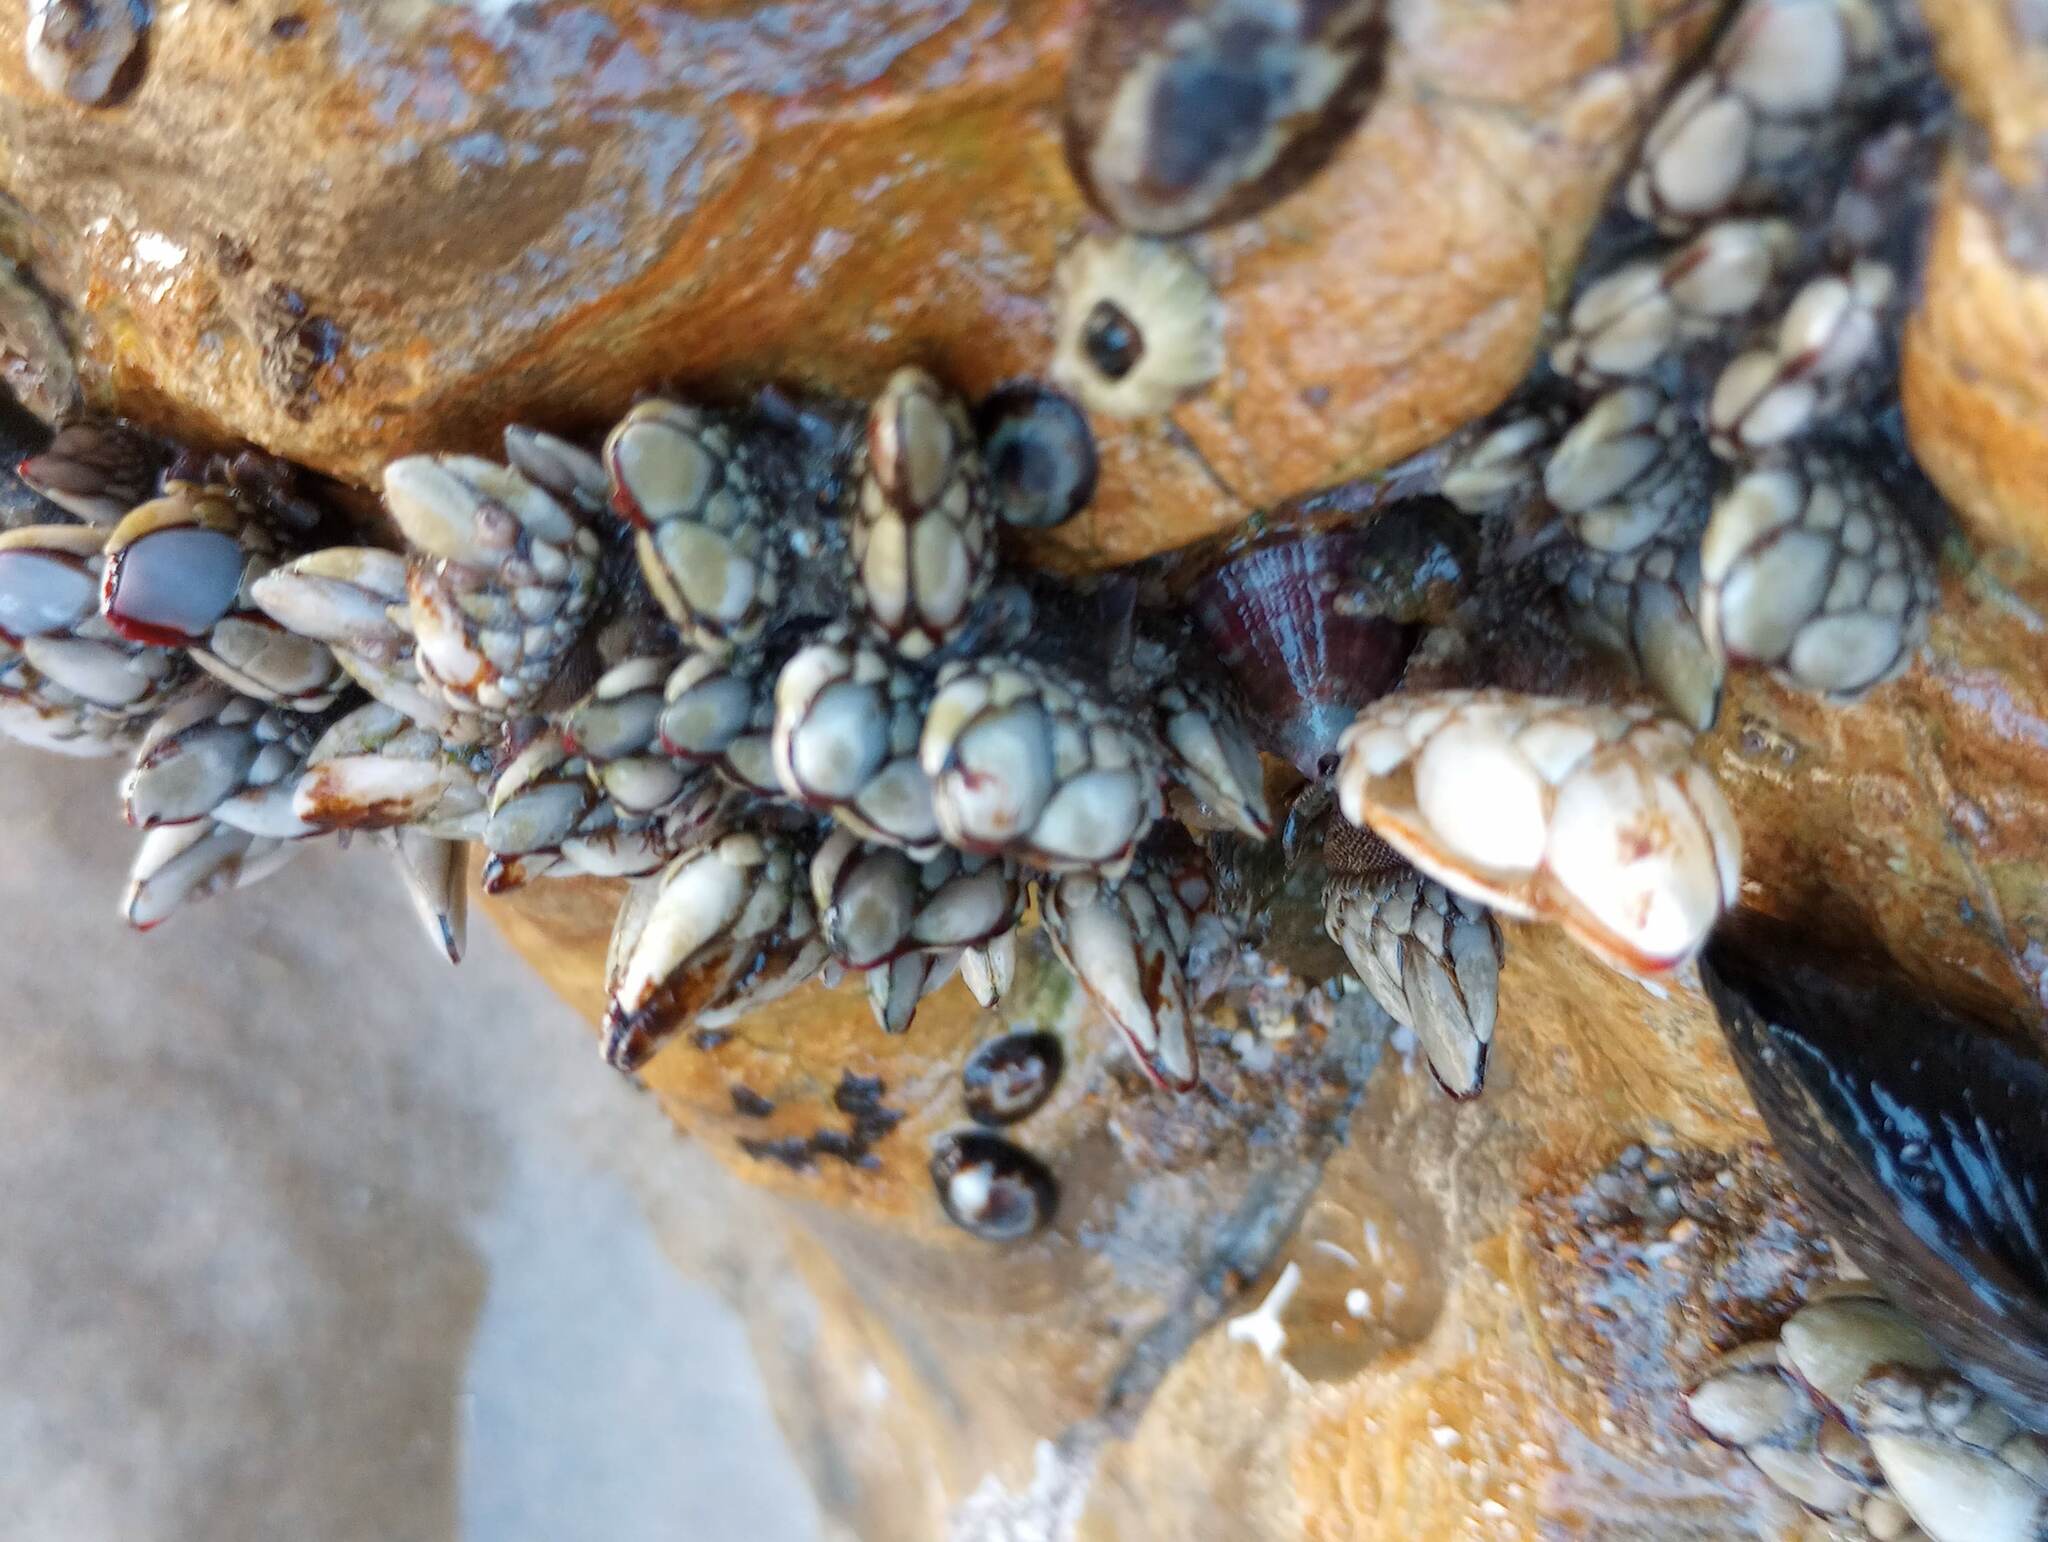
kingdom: Animalia
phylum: Arthropoda
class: Maxillopoda
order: Pedunculata
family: Pollicipedidae
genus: Pollicipes
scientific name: Pollicipes polymerus
